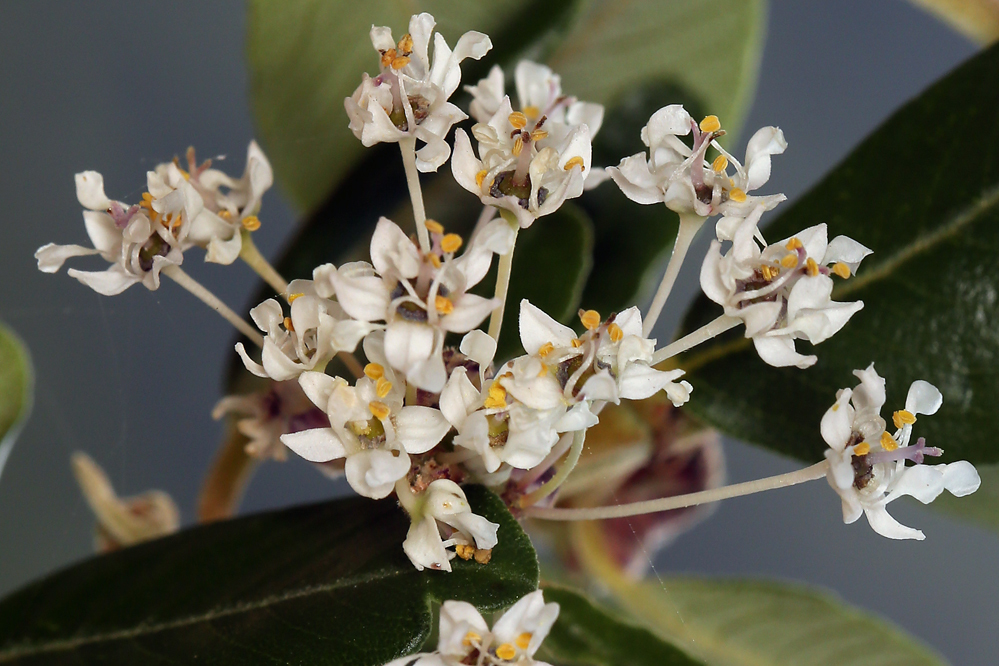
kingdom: Plantae
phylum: Tracheophyta
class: Magnoliopsida
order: Rosales
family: Rhamnaceae
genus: Ceanothus
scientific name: Ceanothus megacarpus
